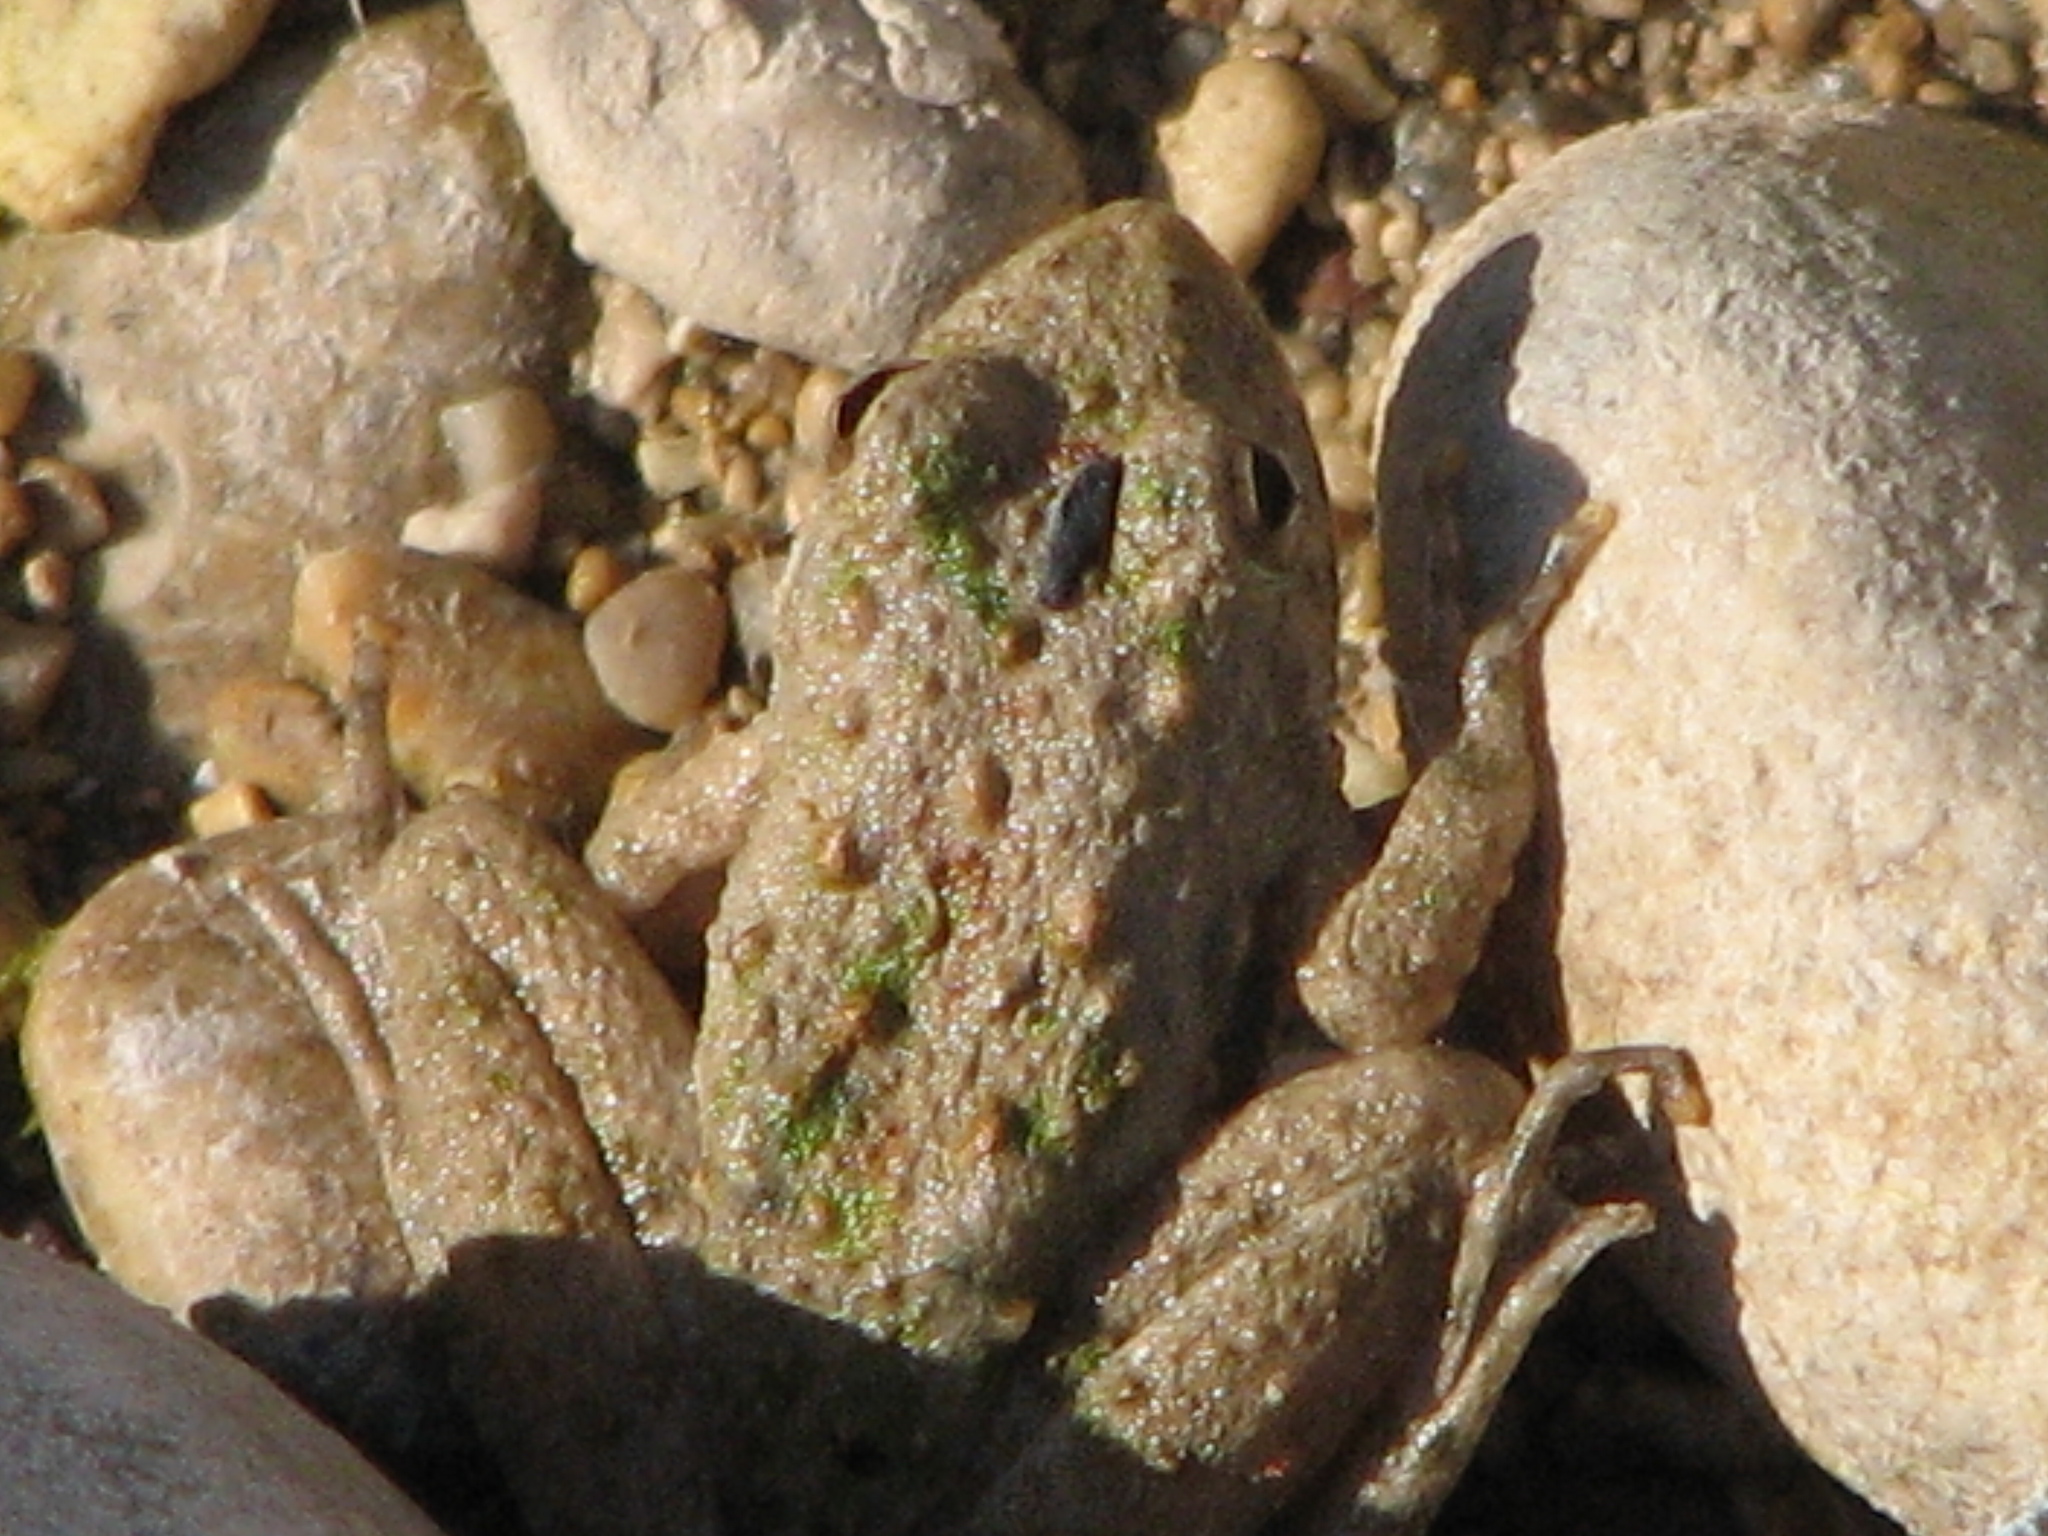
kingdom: Animalia
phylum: Chordata
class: Amphibia
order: Anura
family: Hylidae
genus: Acris
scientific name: Acris blanchardi
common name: Blanchard's cricket frog
